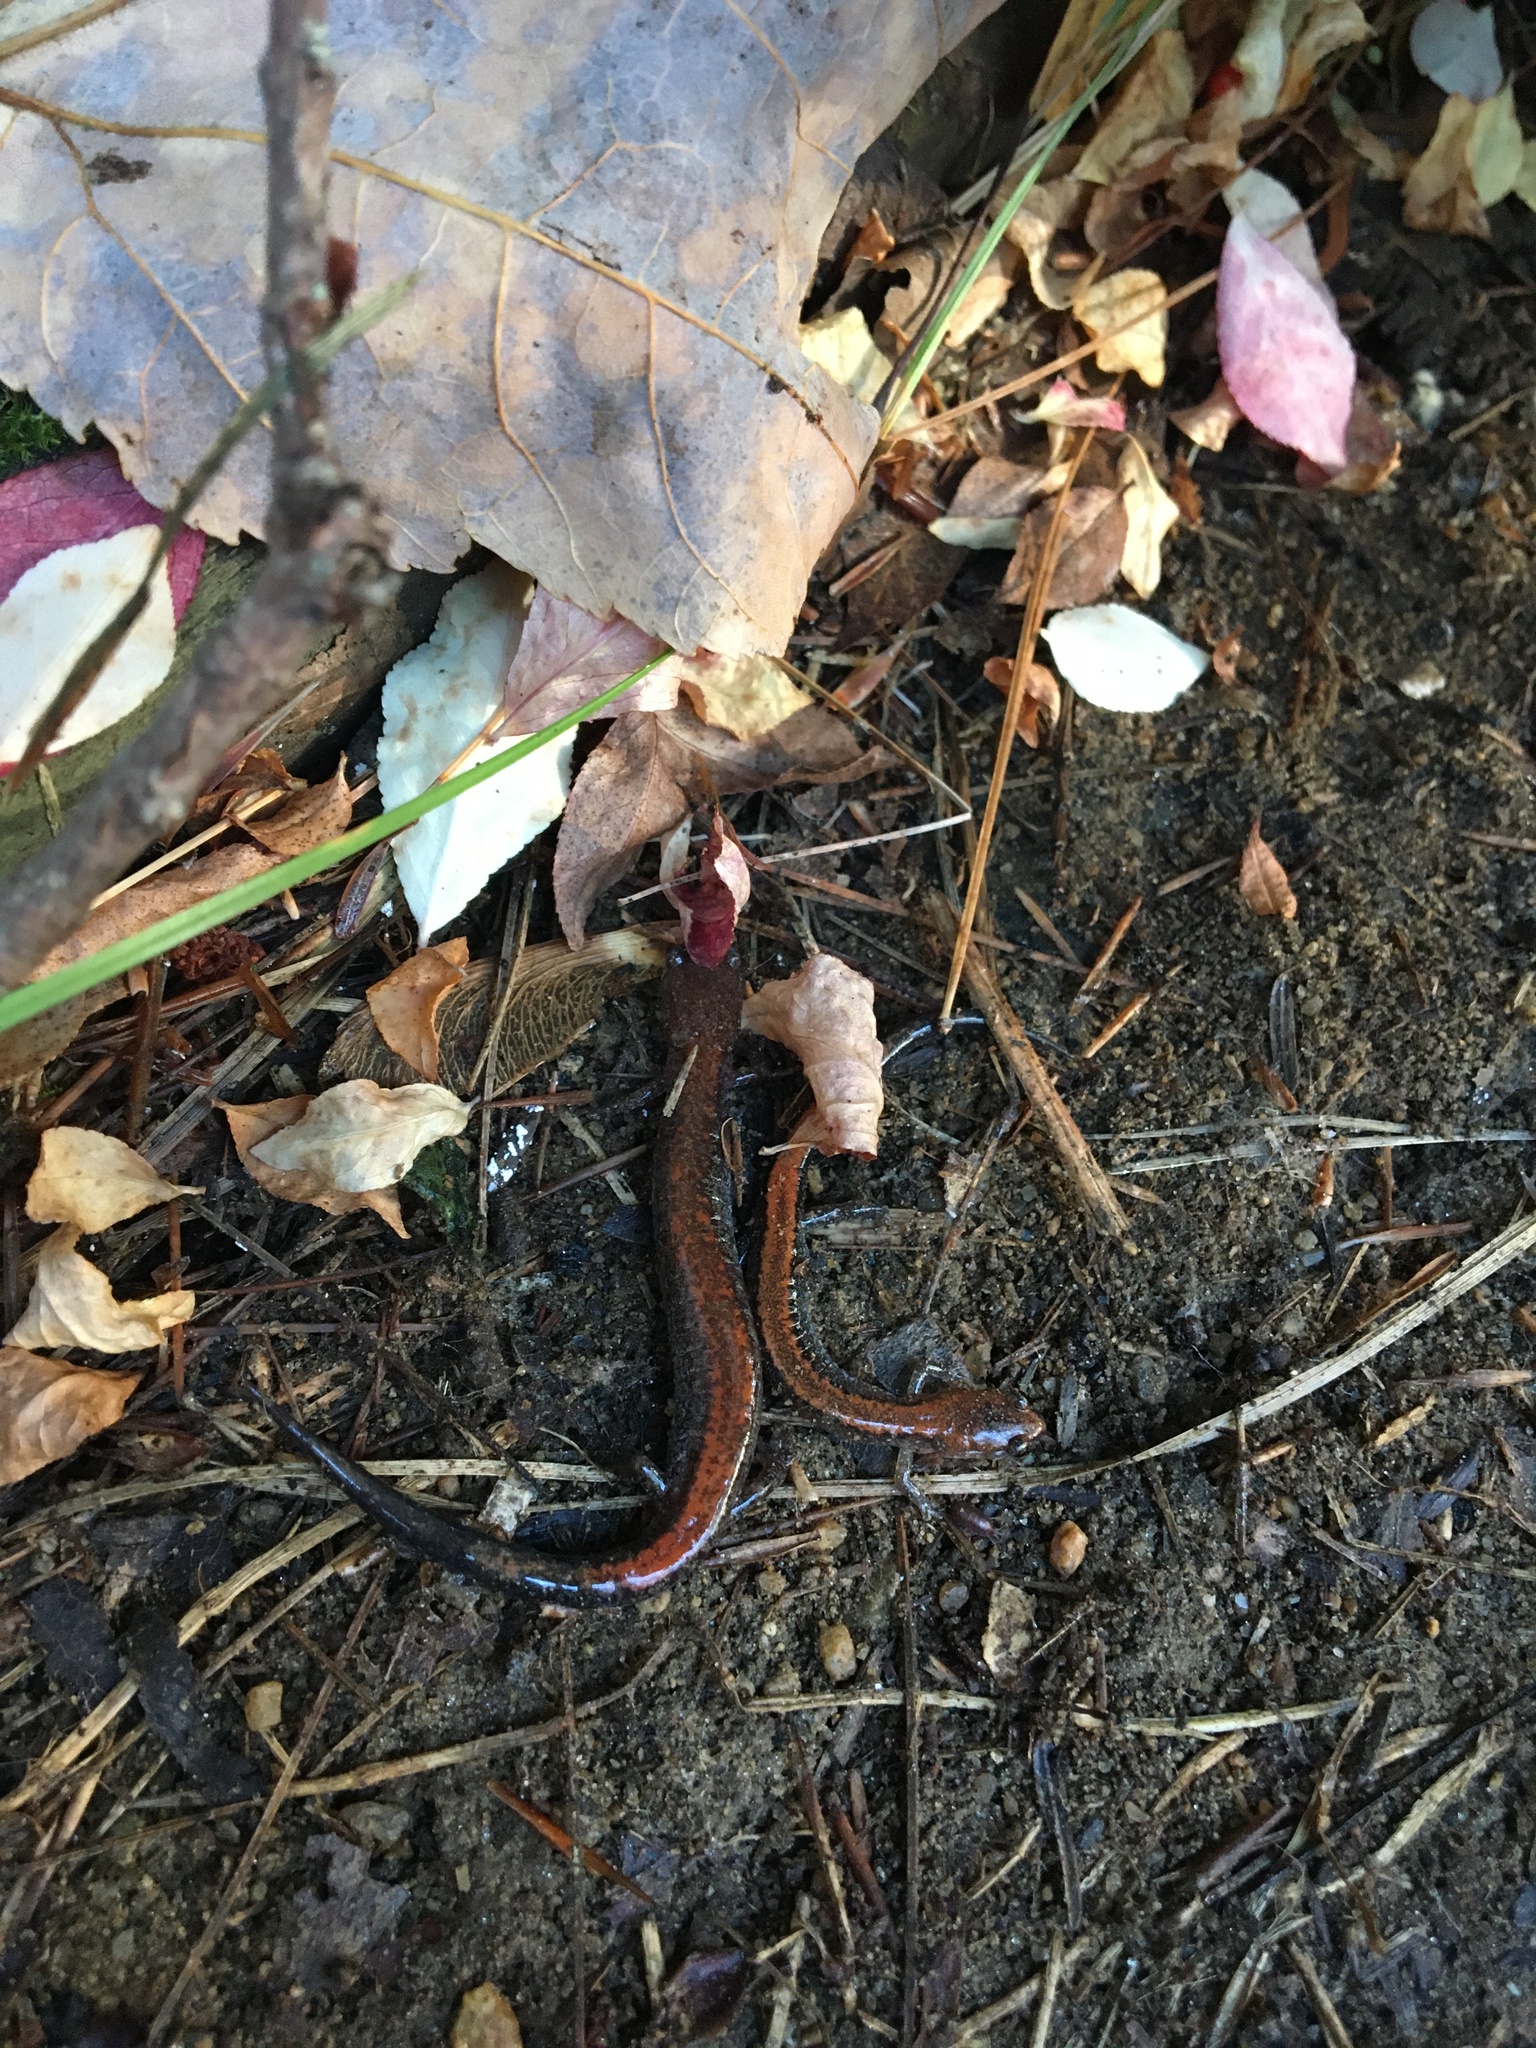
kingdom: Animalia
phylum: Chordata
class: Amphibia
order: Caudata
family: Plethodontidae
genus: Plethodon
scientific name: Plethodon cinereus
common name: Redback salamander
